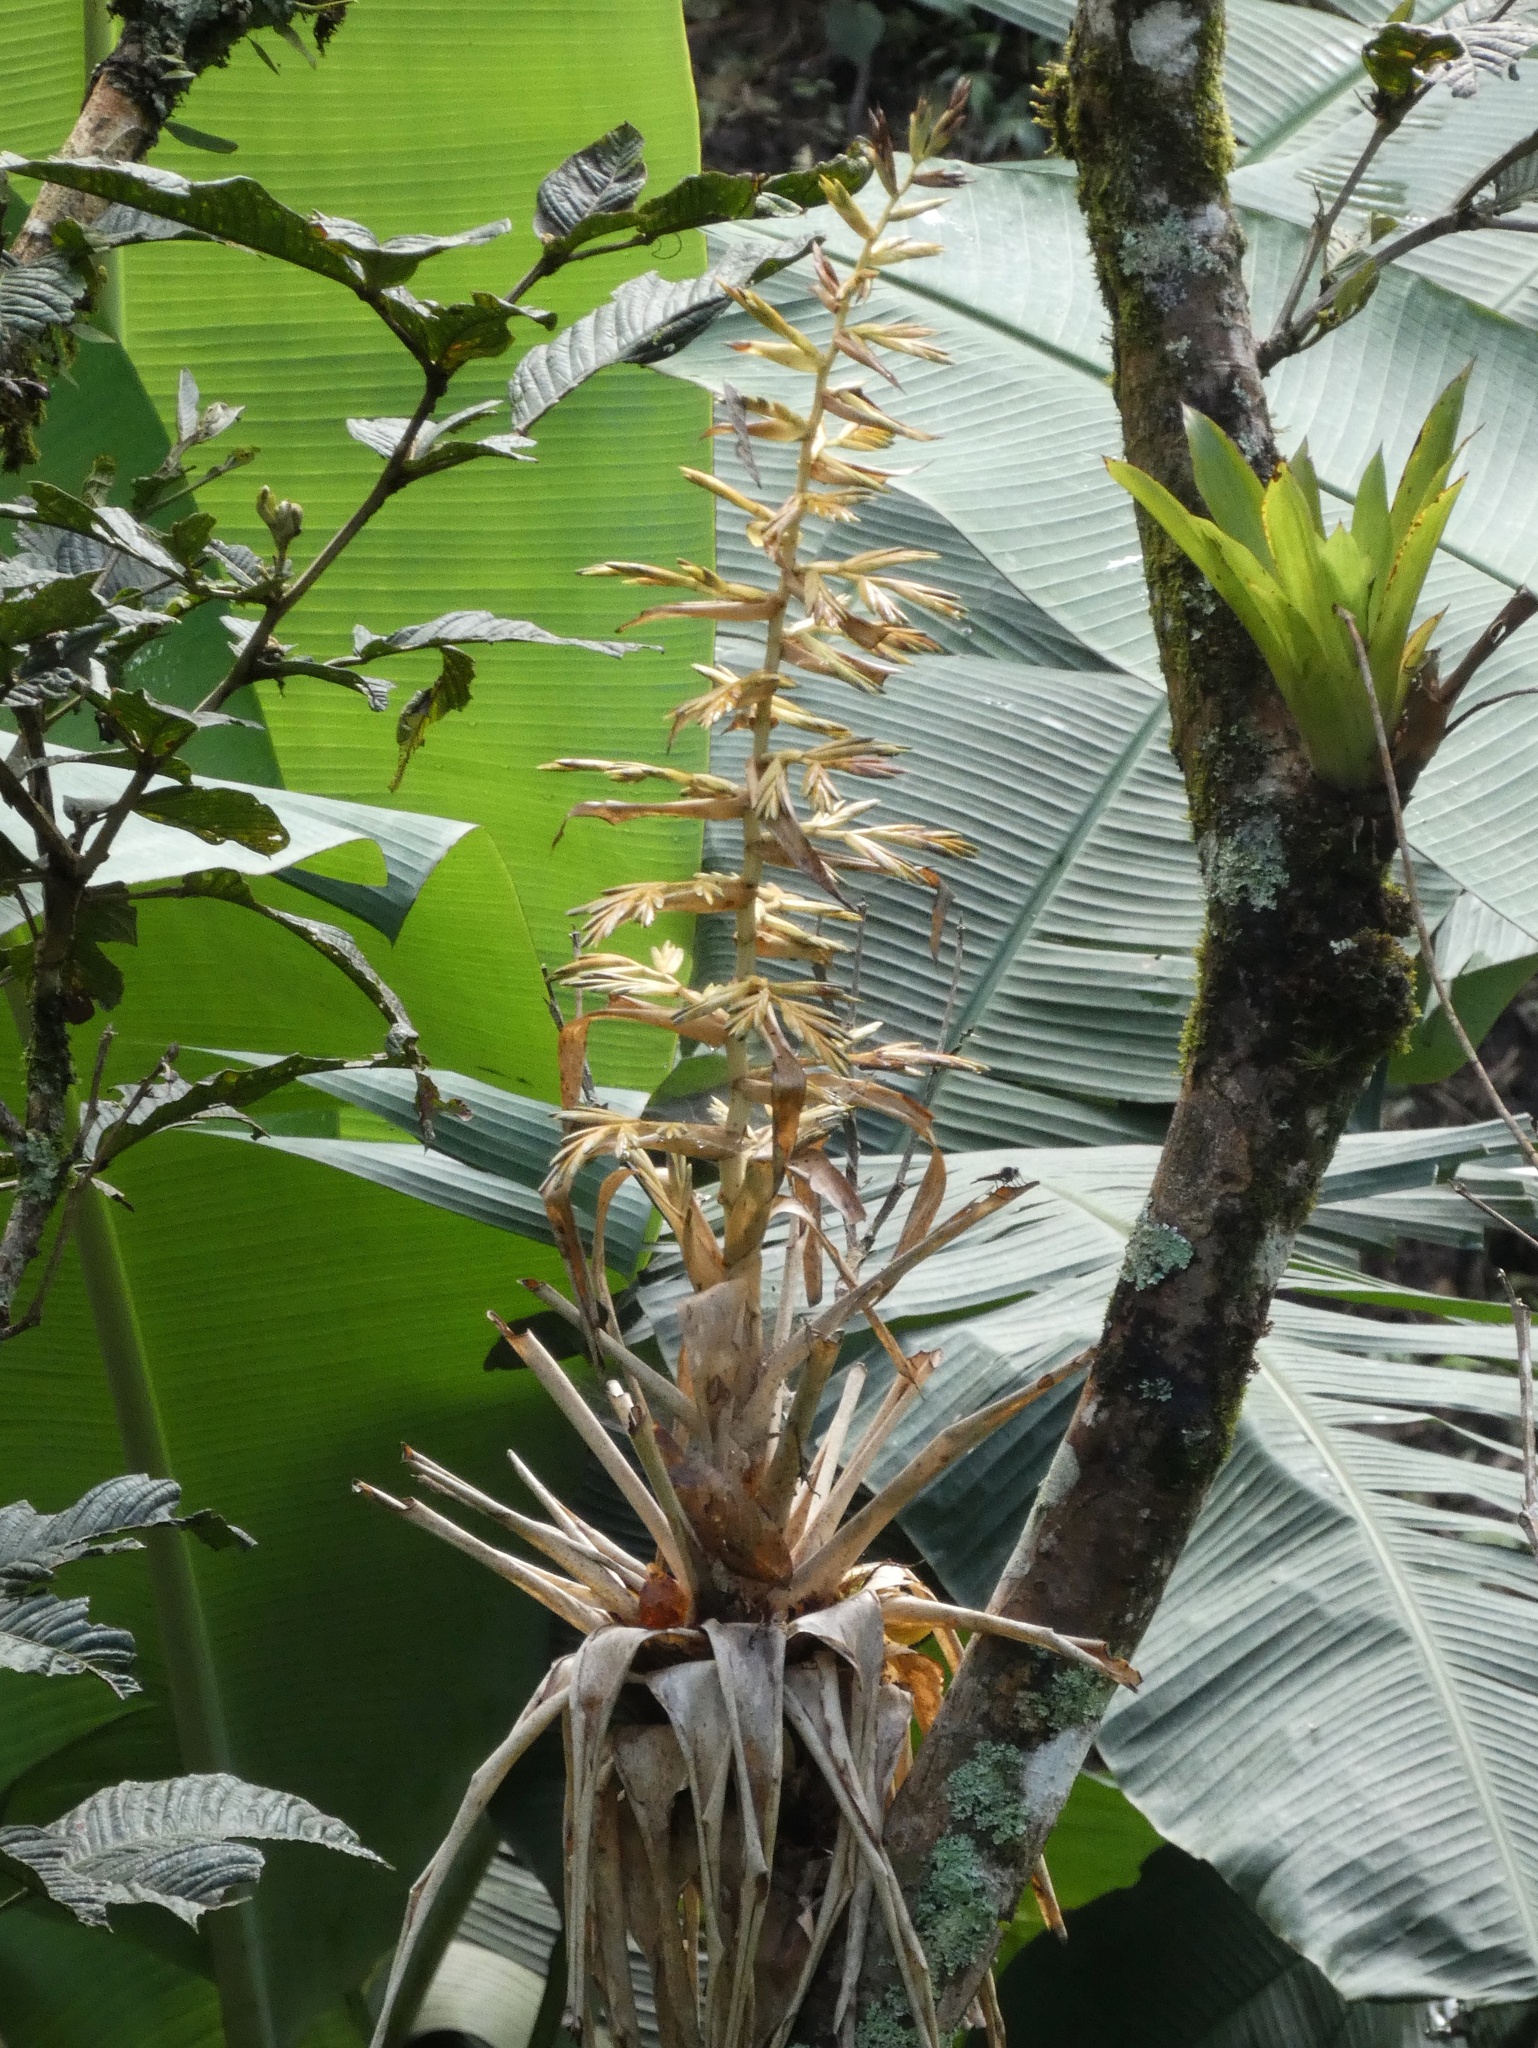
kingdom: Plantae
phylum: Tracheophyta
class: Liliopsida
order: Poales
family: Bromeliaceae
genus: Tillandsia
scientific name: Tillandsia guatemalensis
